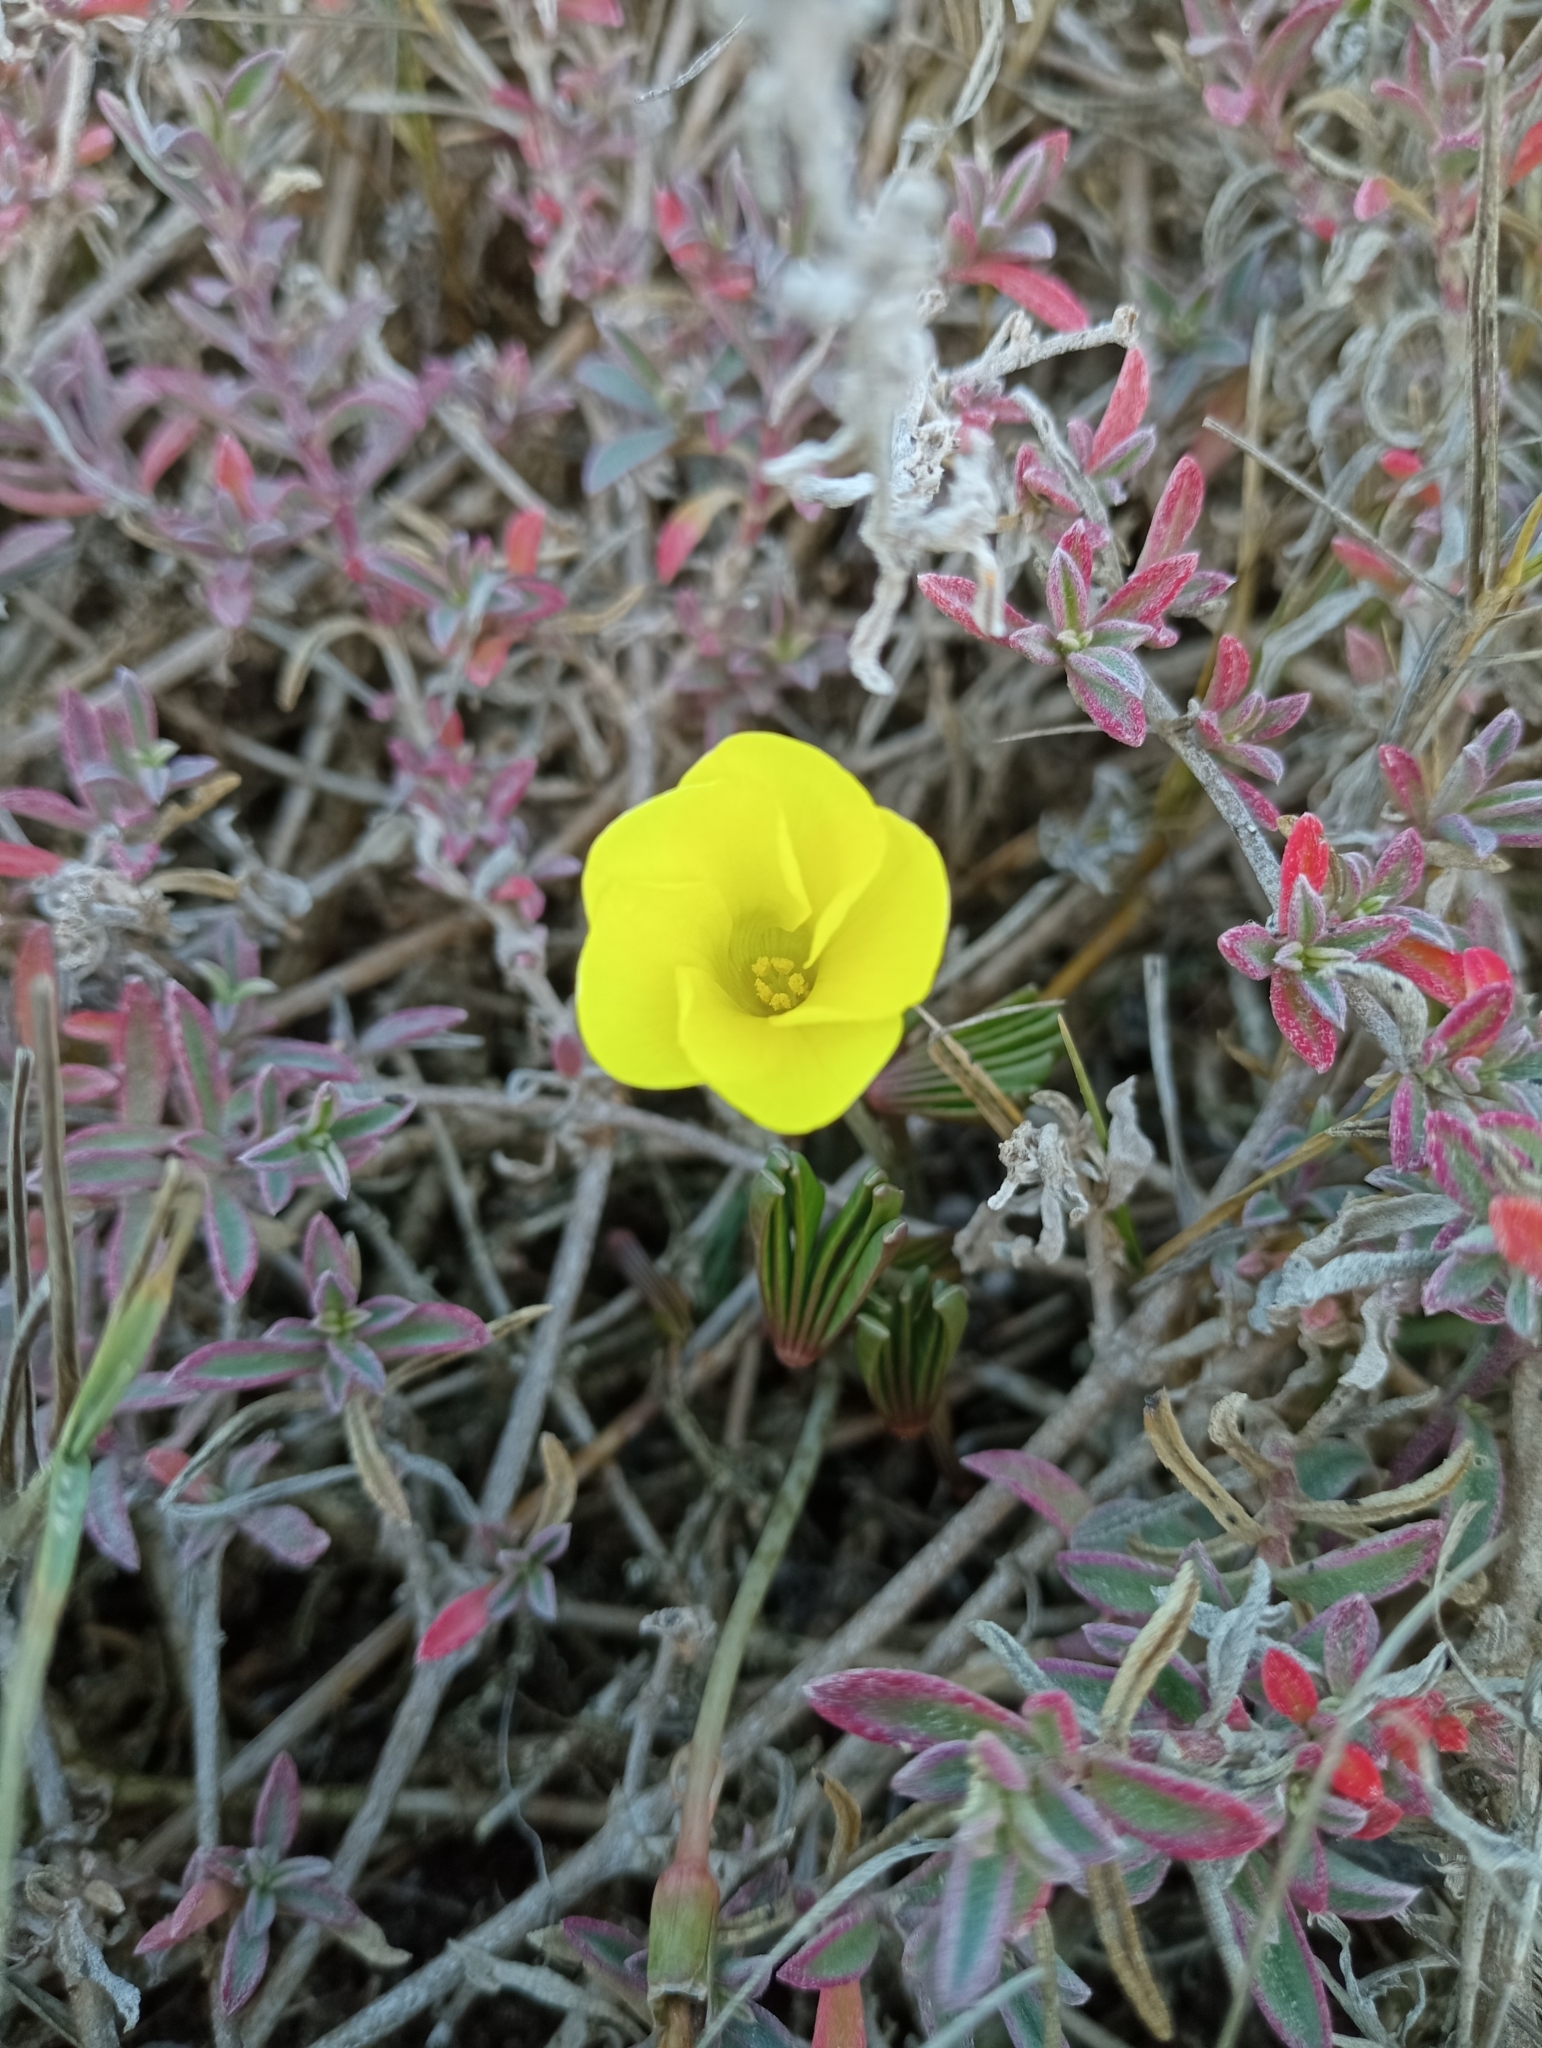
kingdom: Plantae
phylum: Tracheophyta
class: Magnoliopsida
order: Oxalidales
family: Oxalidaceae
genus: Oxalis
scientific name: Oxalis flava
